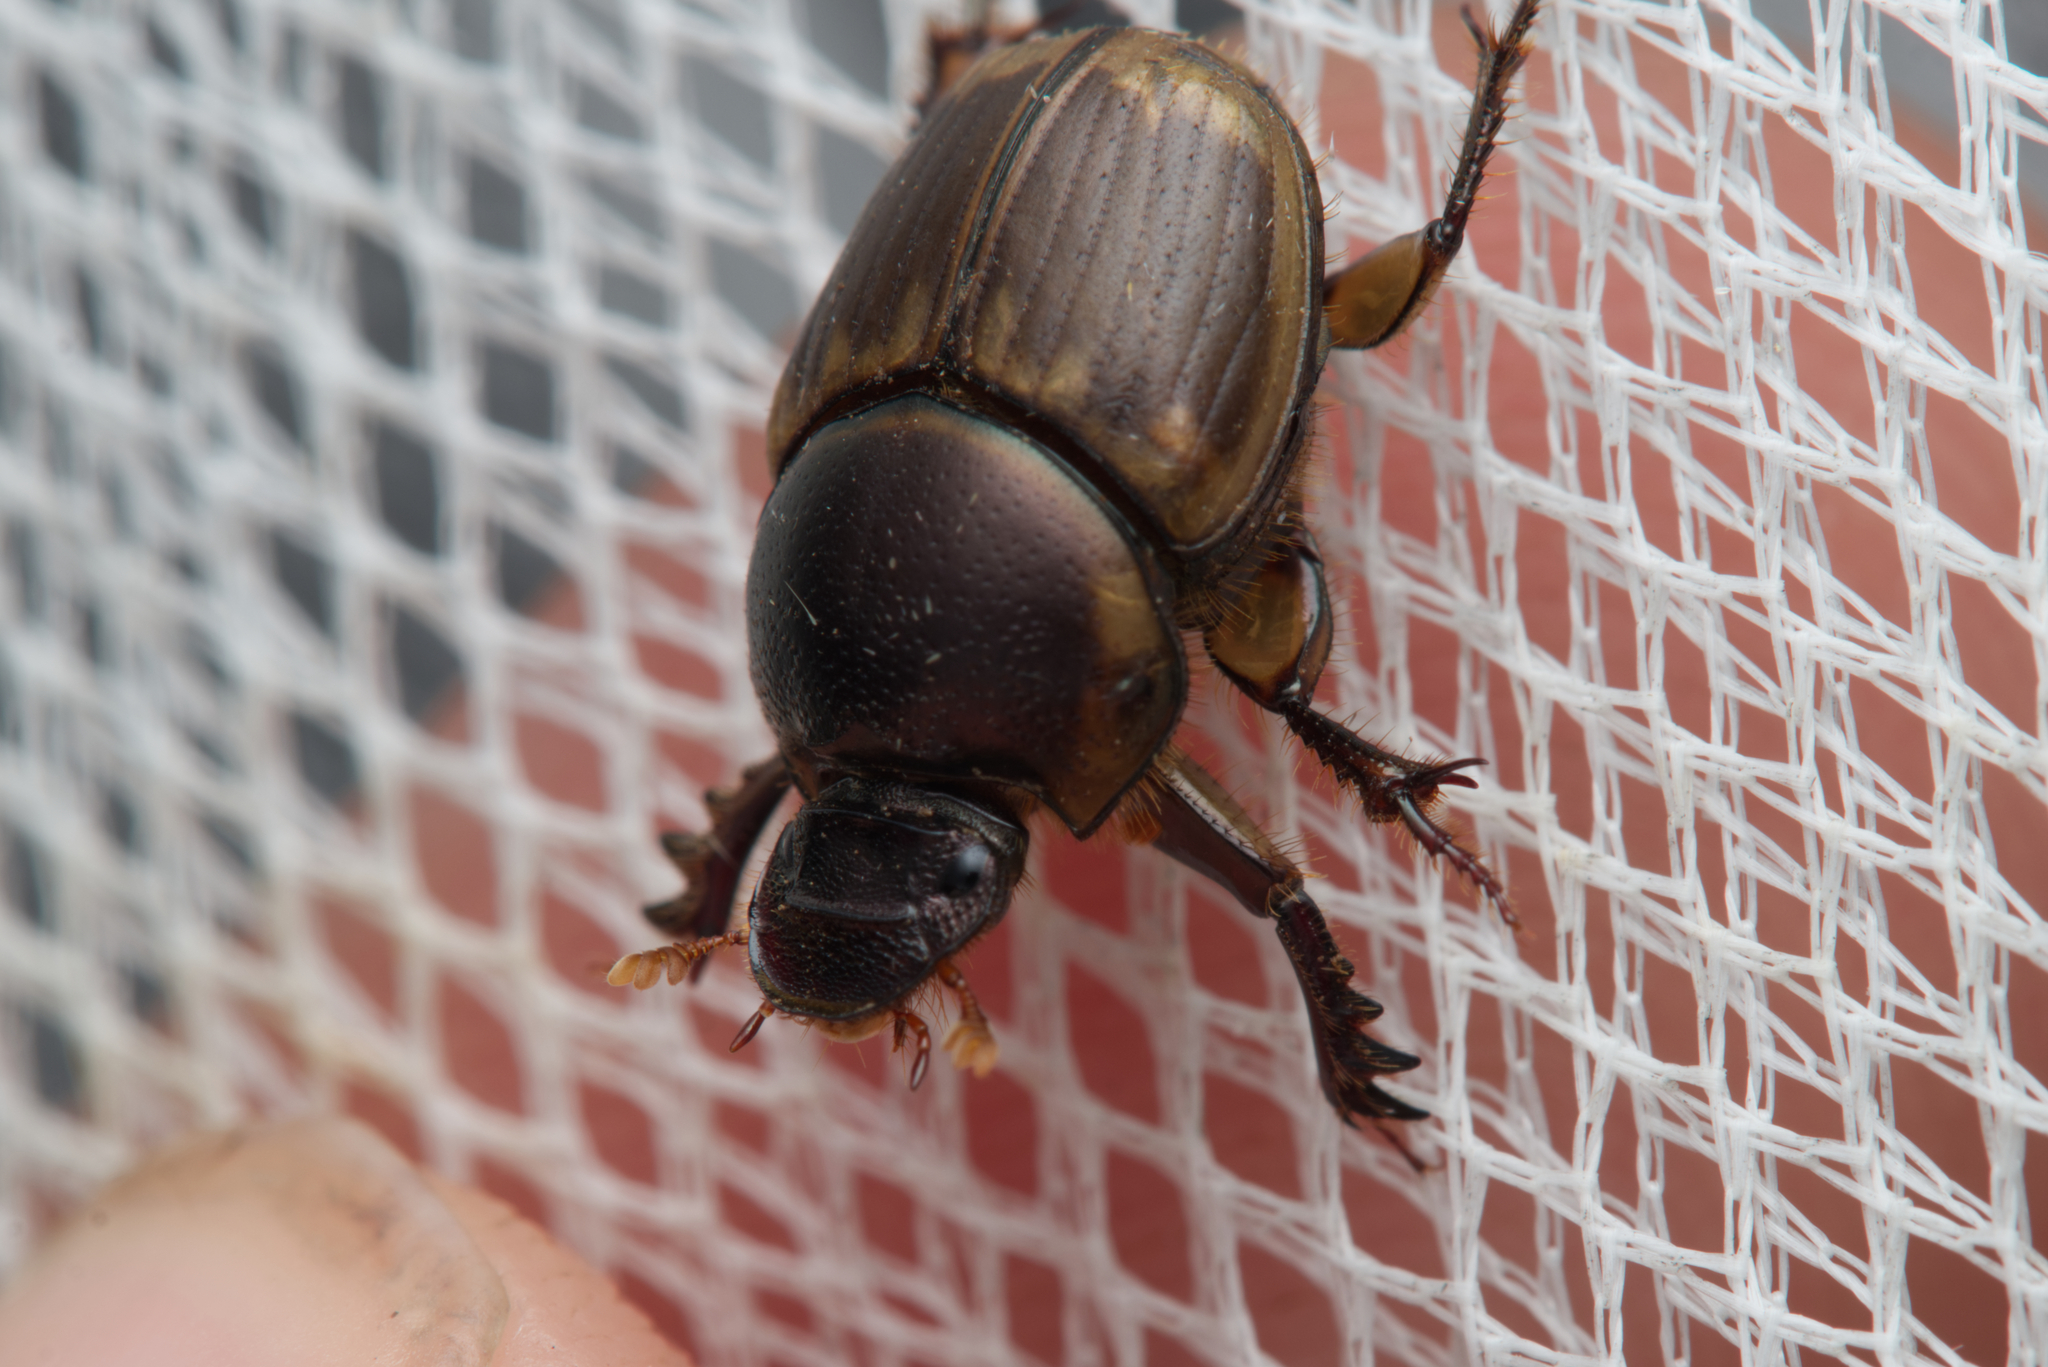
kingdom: Animalia
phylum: Arthropoda
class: Insecta
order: Coleoptera
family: Scarabaeidae
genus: Digitonthophagus
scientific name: Digitonthophagus gazella
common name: Brown dung beetle
